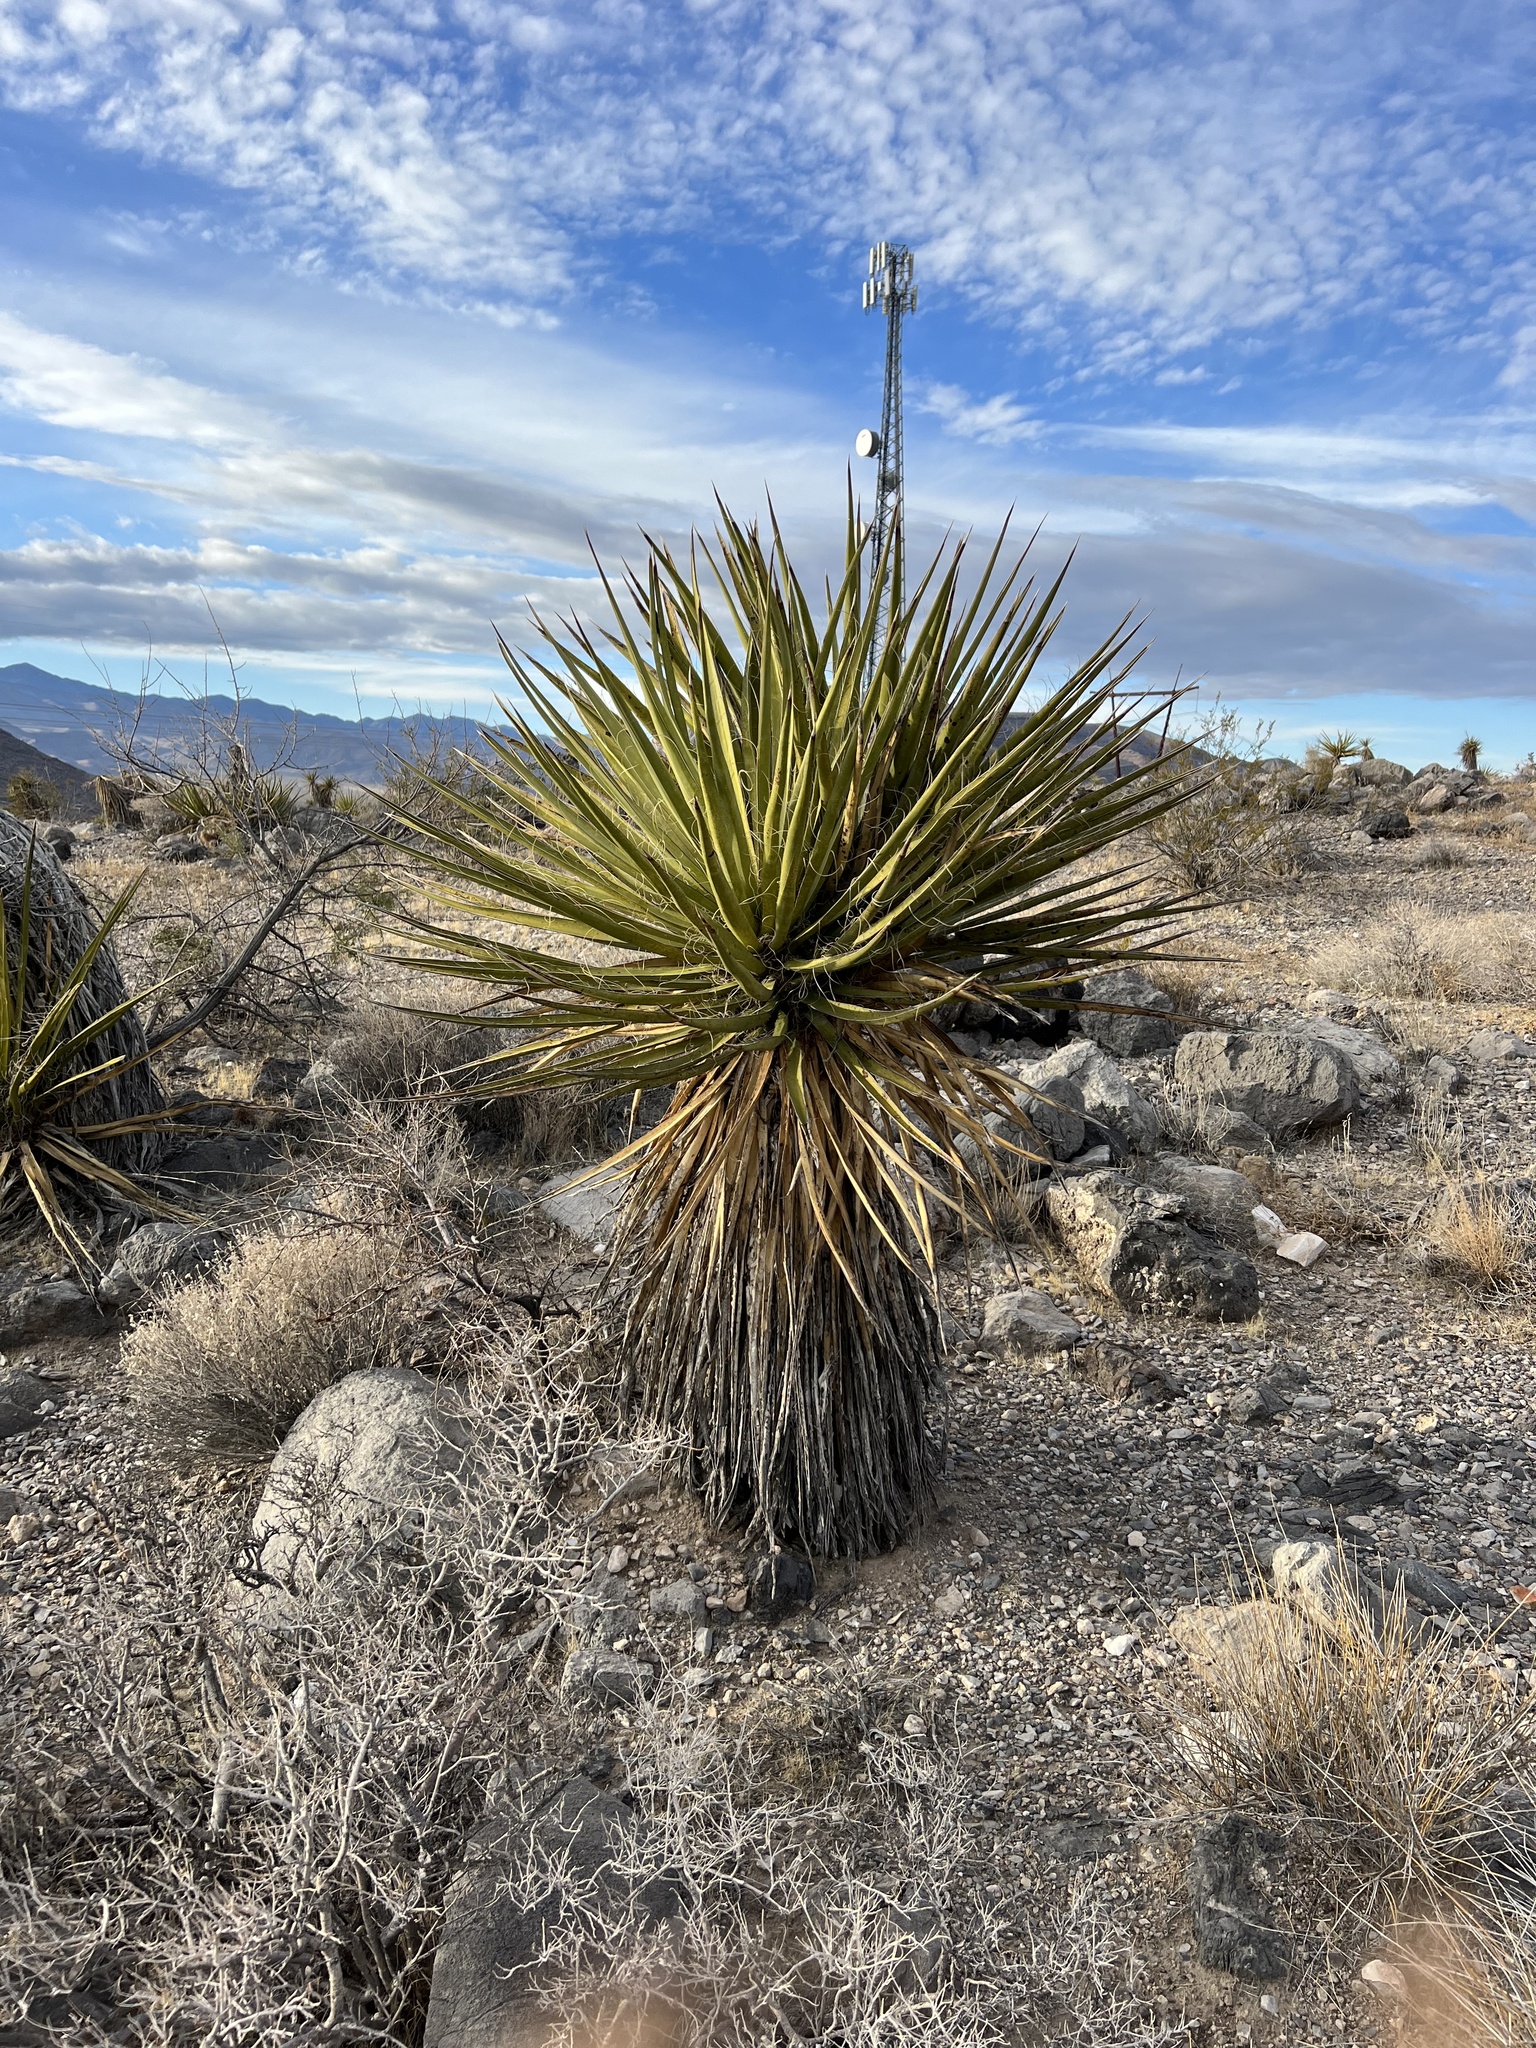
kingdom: Plantae
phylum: Tracheophyta
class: Liliopsida
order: Asparagales
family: Asparagaceae
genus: Yucca
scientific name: Yucca schidigera
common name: Mojave yucca
